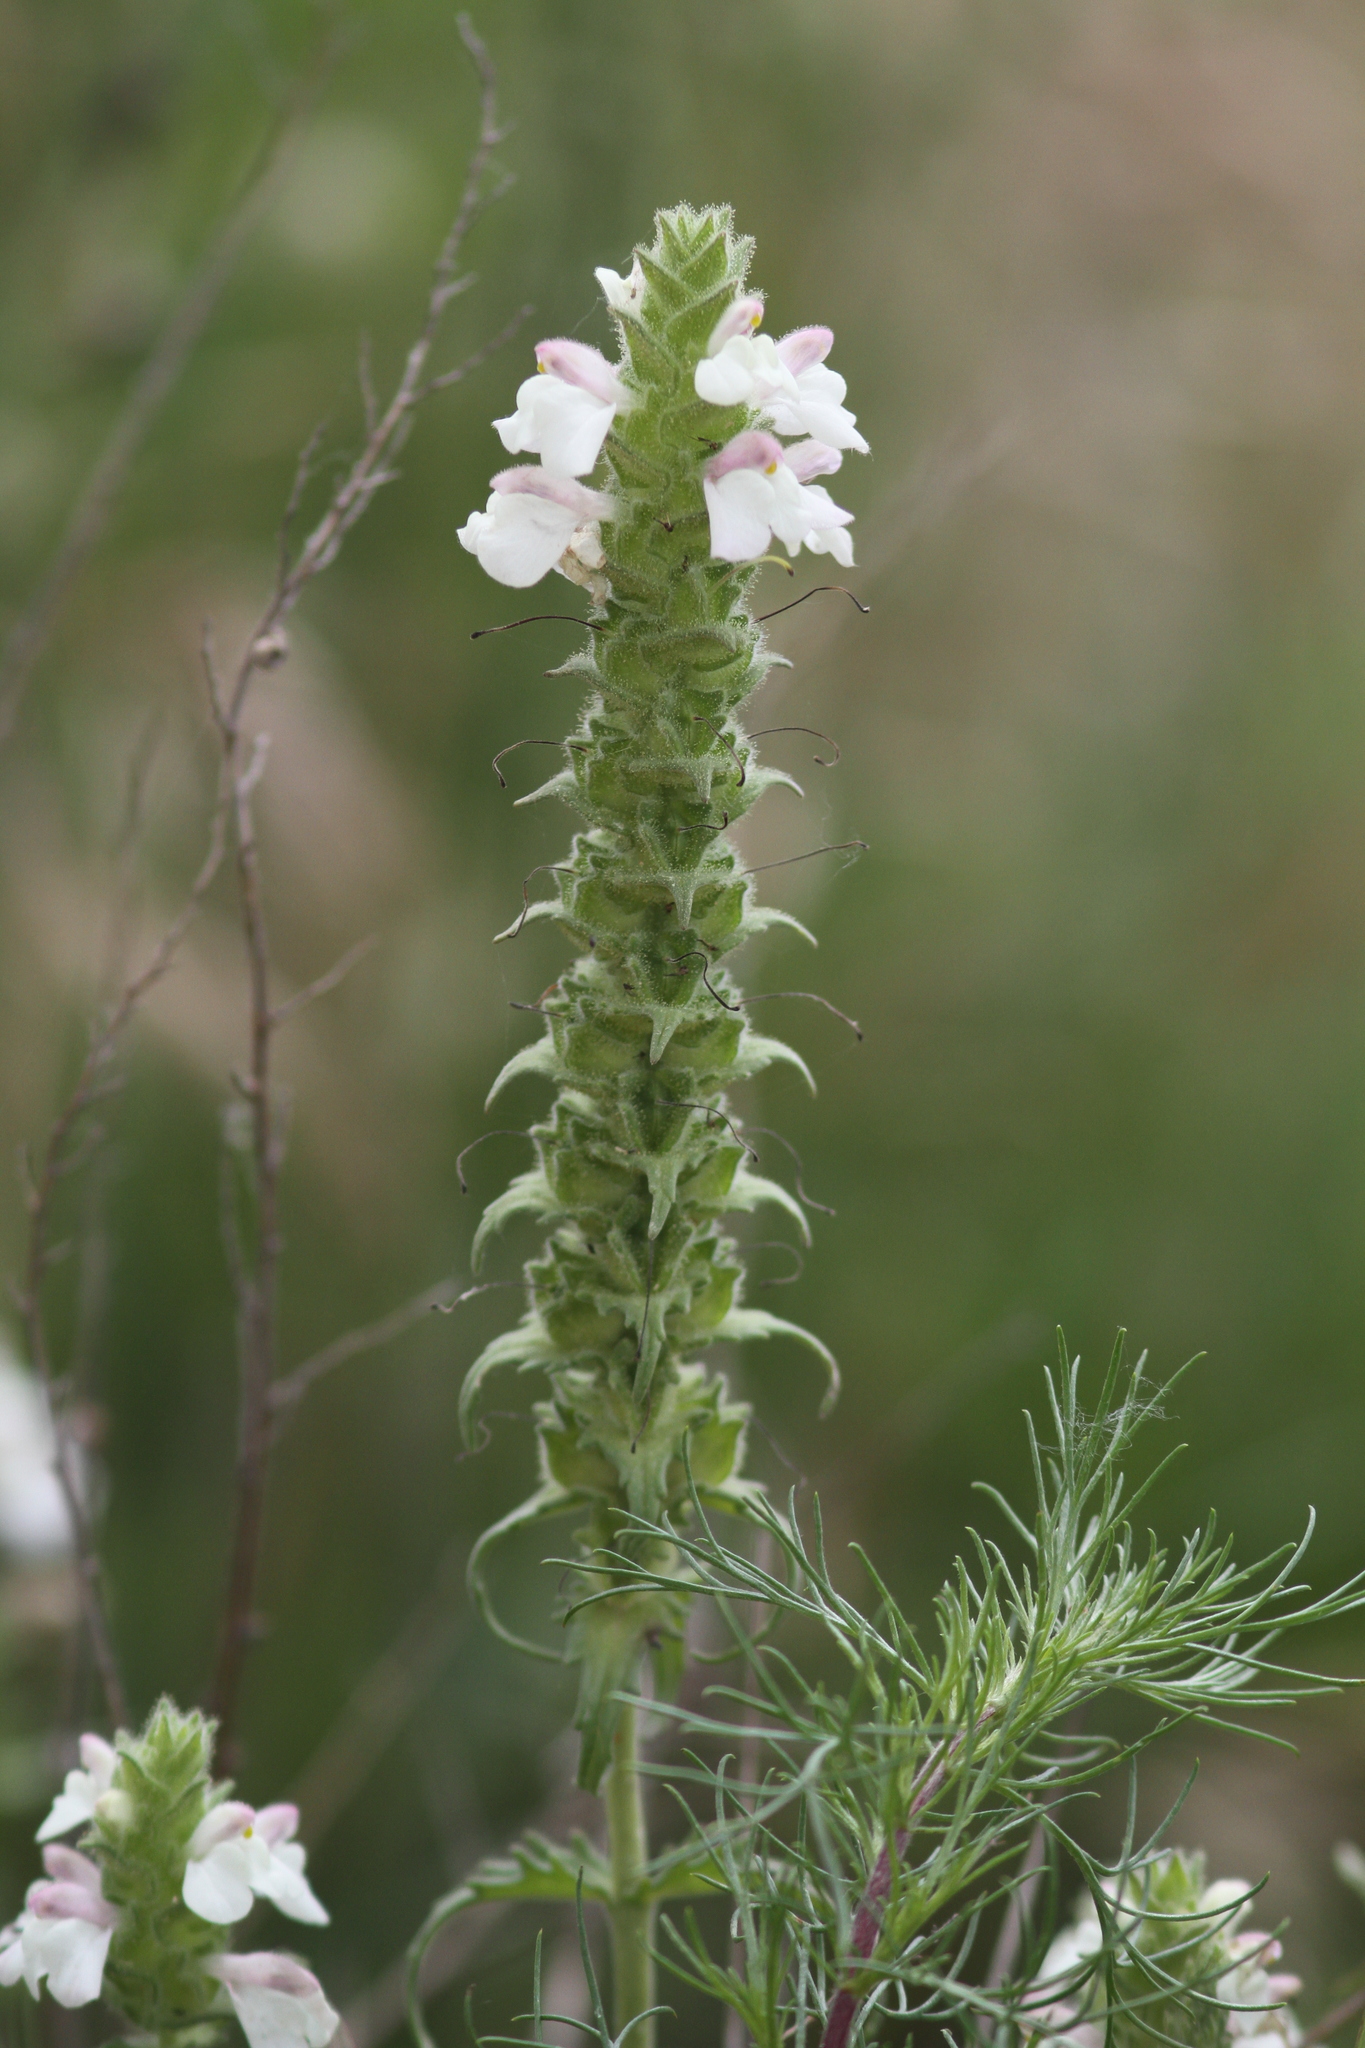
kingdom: Plantae
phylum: Tracheophyta
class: Magnoliopsida
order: Lamiales
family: Orobanchaceae
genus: Bellardia
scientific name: Bellardia trixago
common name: Mediterranean lineseed
